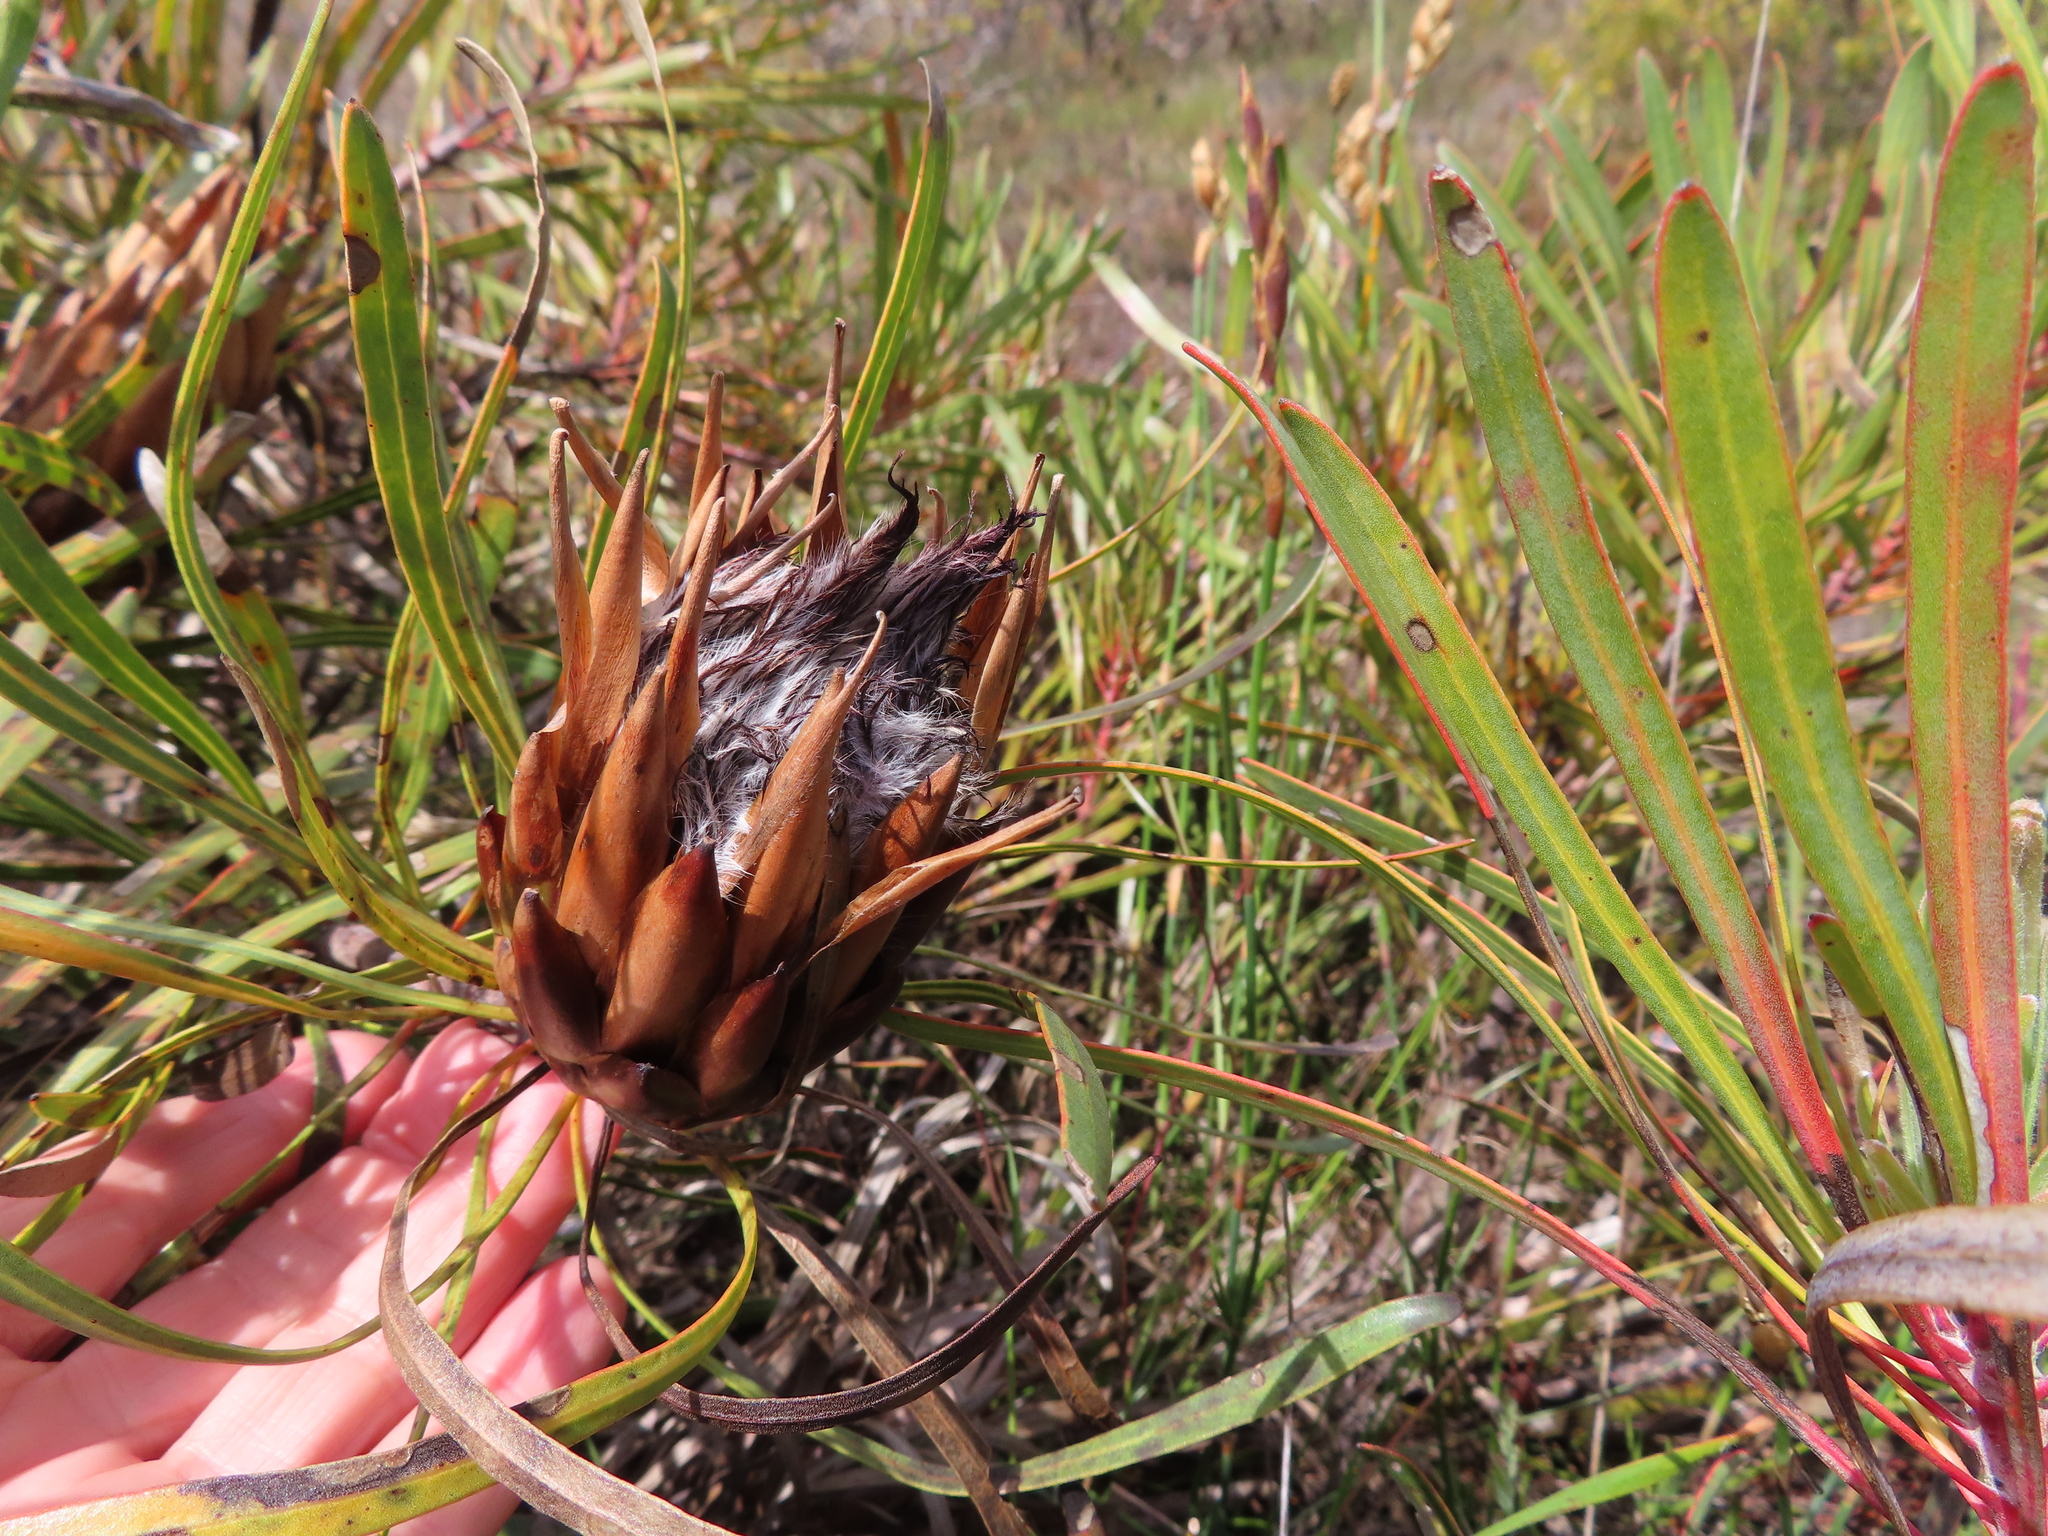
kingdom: Plantae
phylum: Tracheophyta
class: Magnoliopsida
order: Proteales
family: Proteaceae
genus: Protea
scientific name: Protea longifolia
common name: Long-leaf sugarbush
